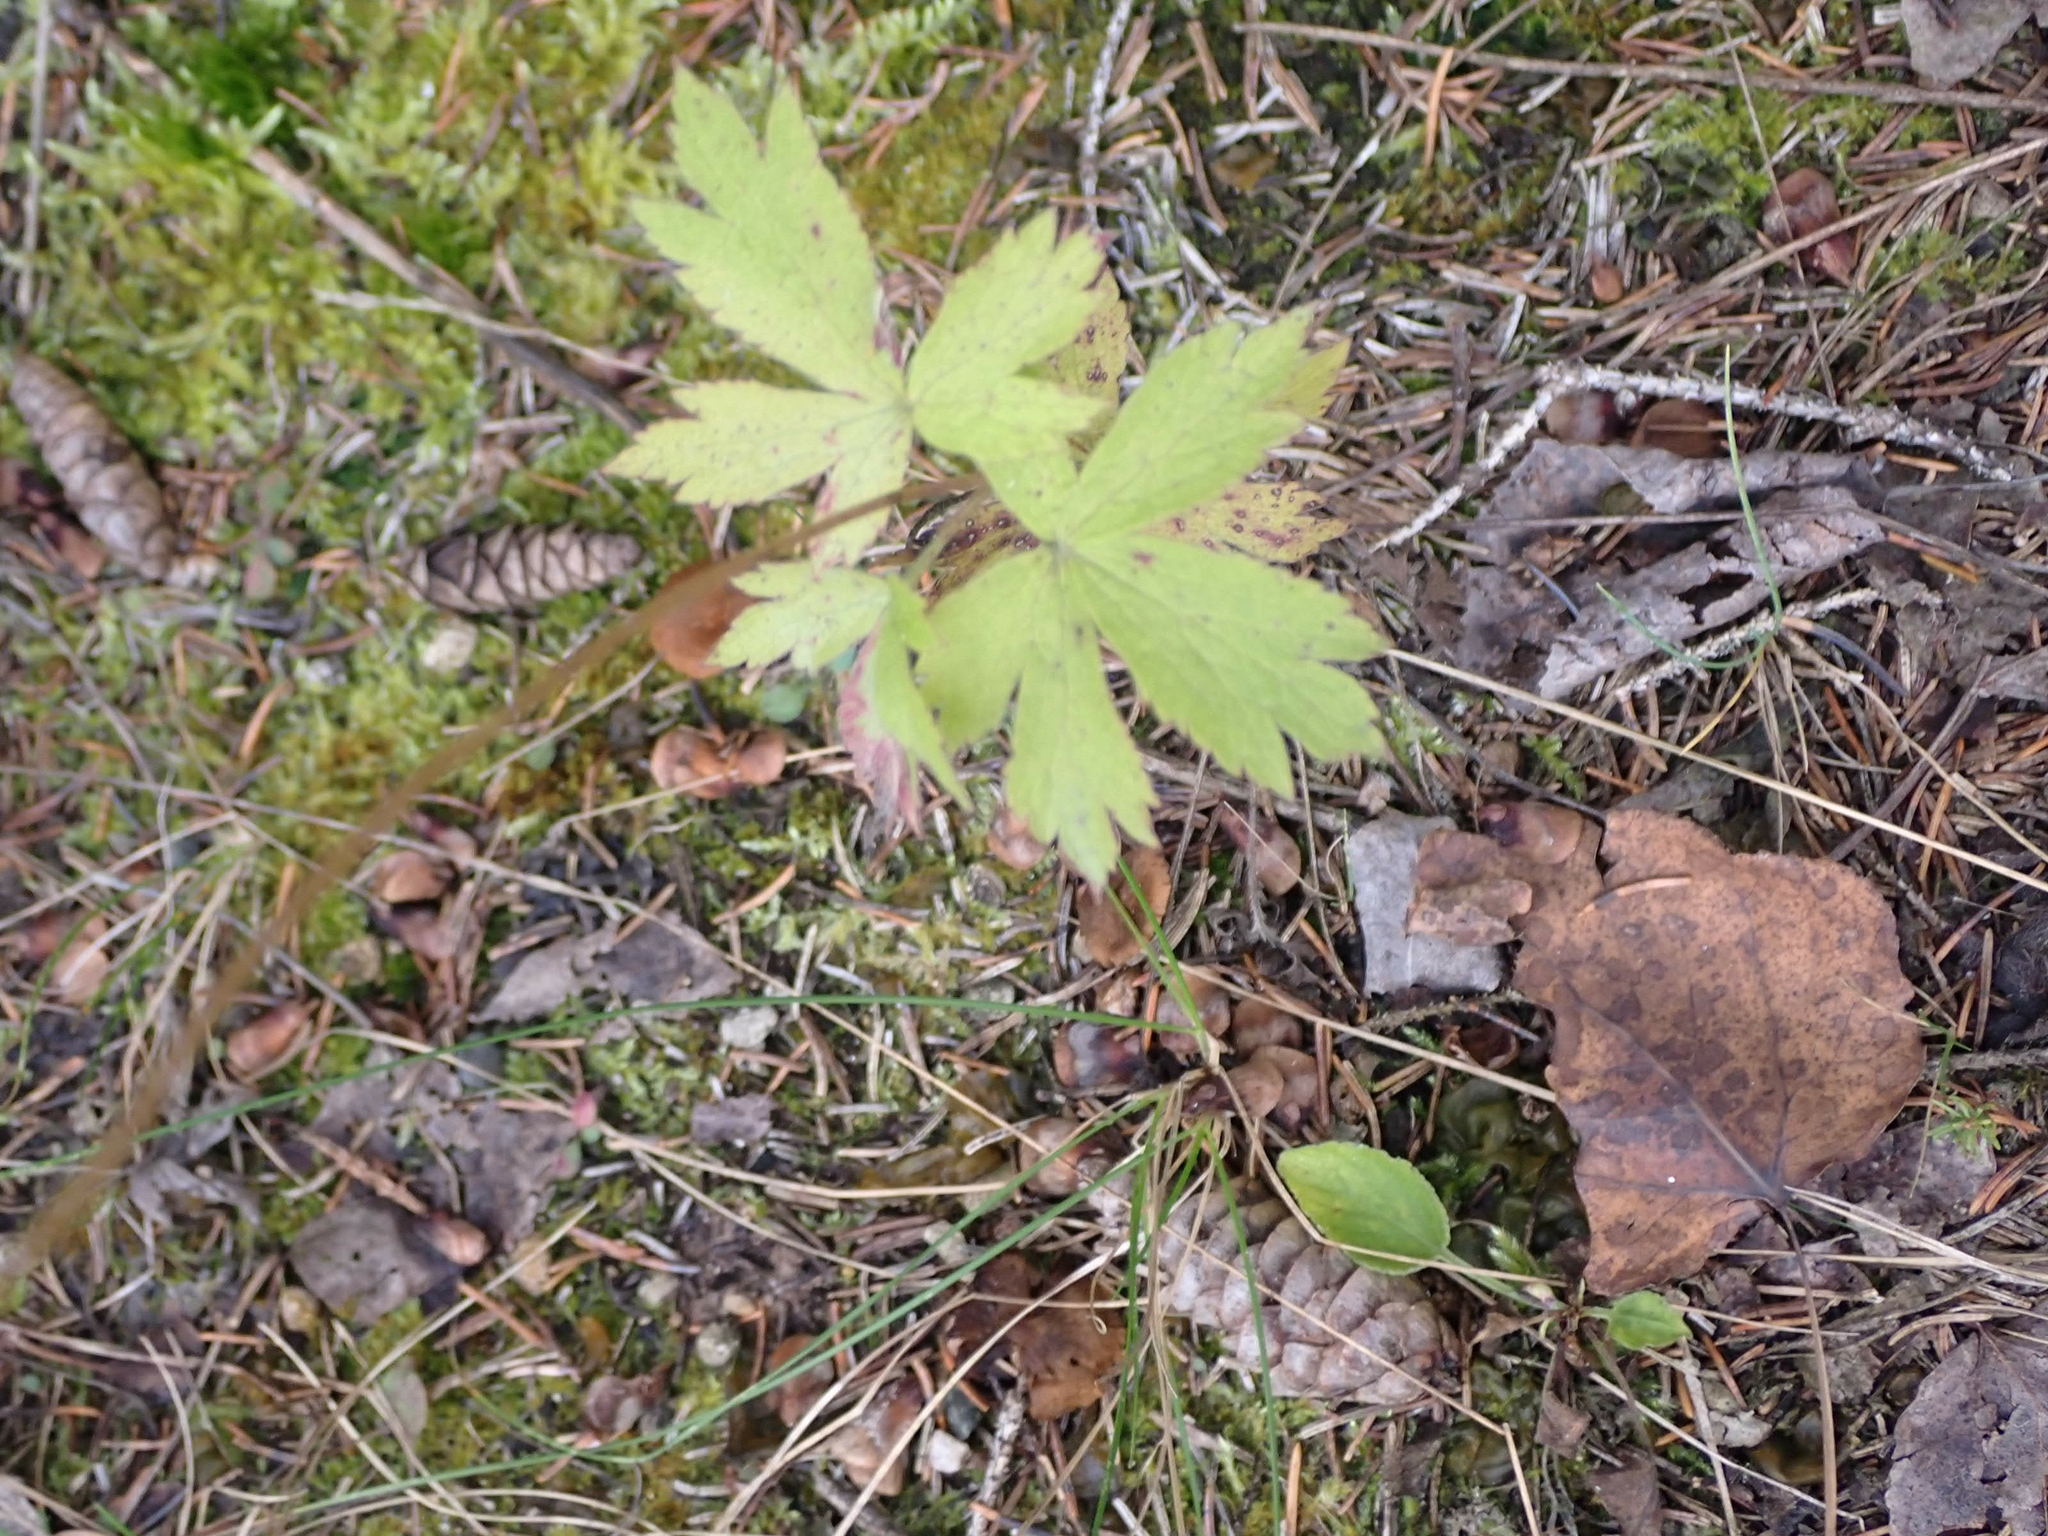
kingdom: Plantae
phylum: Tracheophyta
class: Magnoliopsida
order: Ranunculales
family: Ranunculaceae
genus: Anemone
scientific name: Anemone virginiana
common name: Tall anemone
